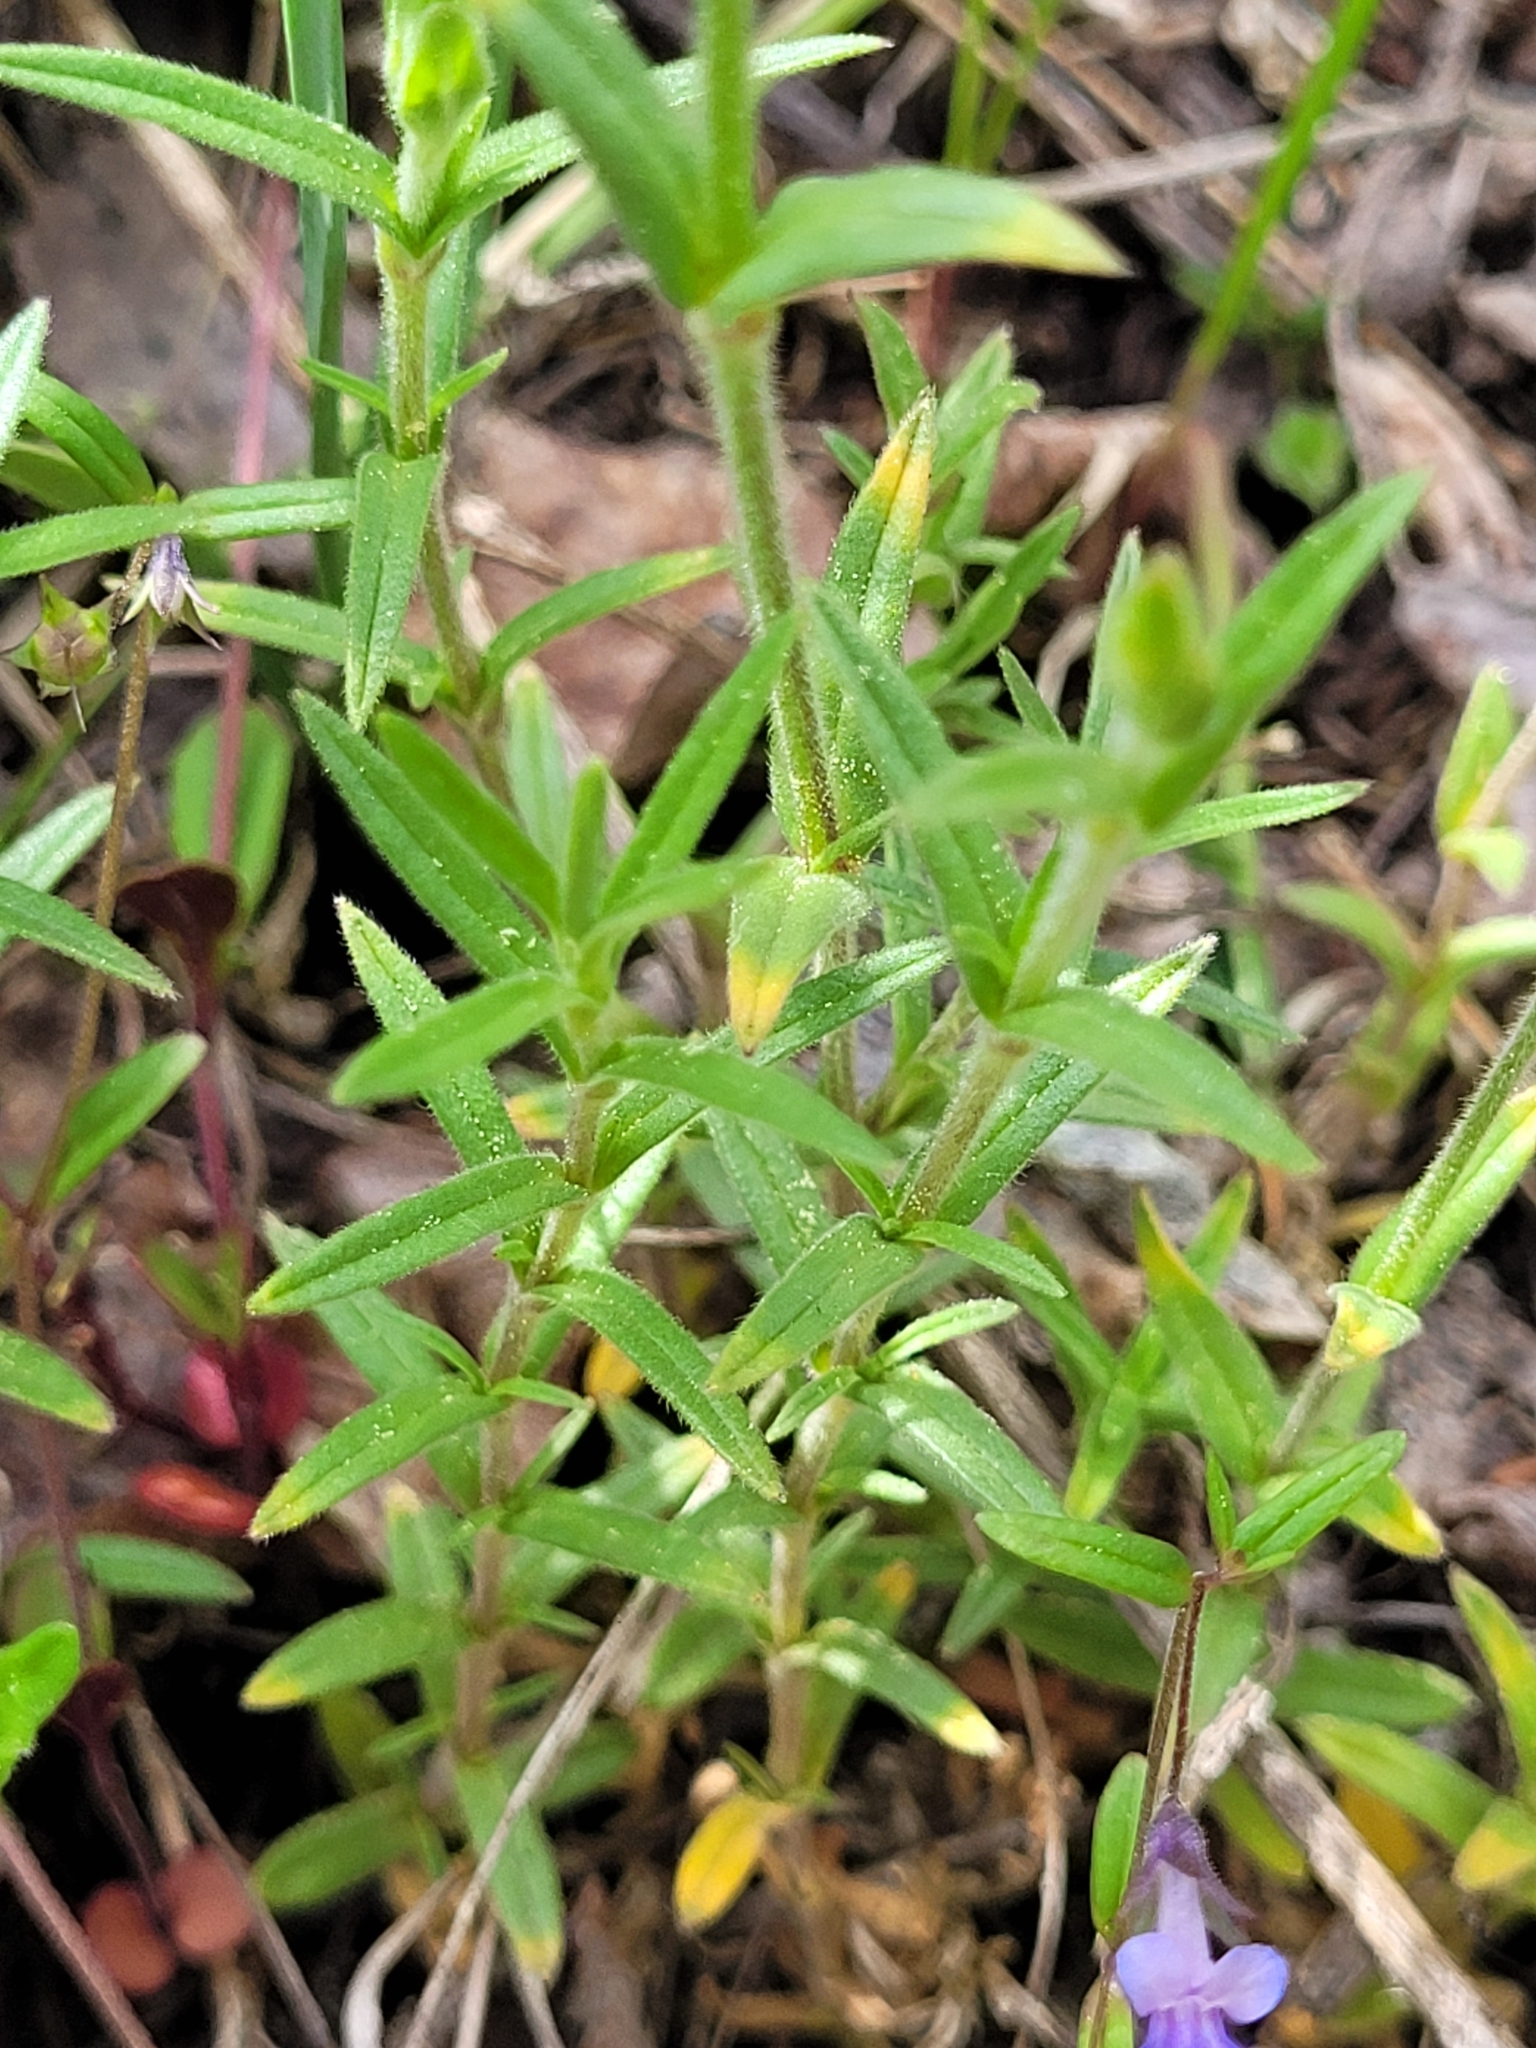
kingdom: Plantae
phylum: Tracheophyta
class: Magnoliopsida
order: Caryophyllales
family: Caryophyllaceae
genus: Cerastium
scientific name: Cerastium arvense
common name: Field mouse-ear
